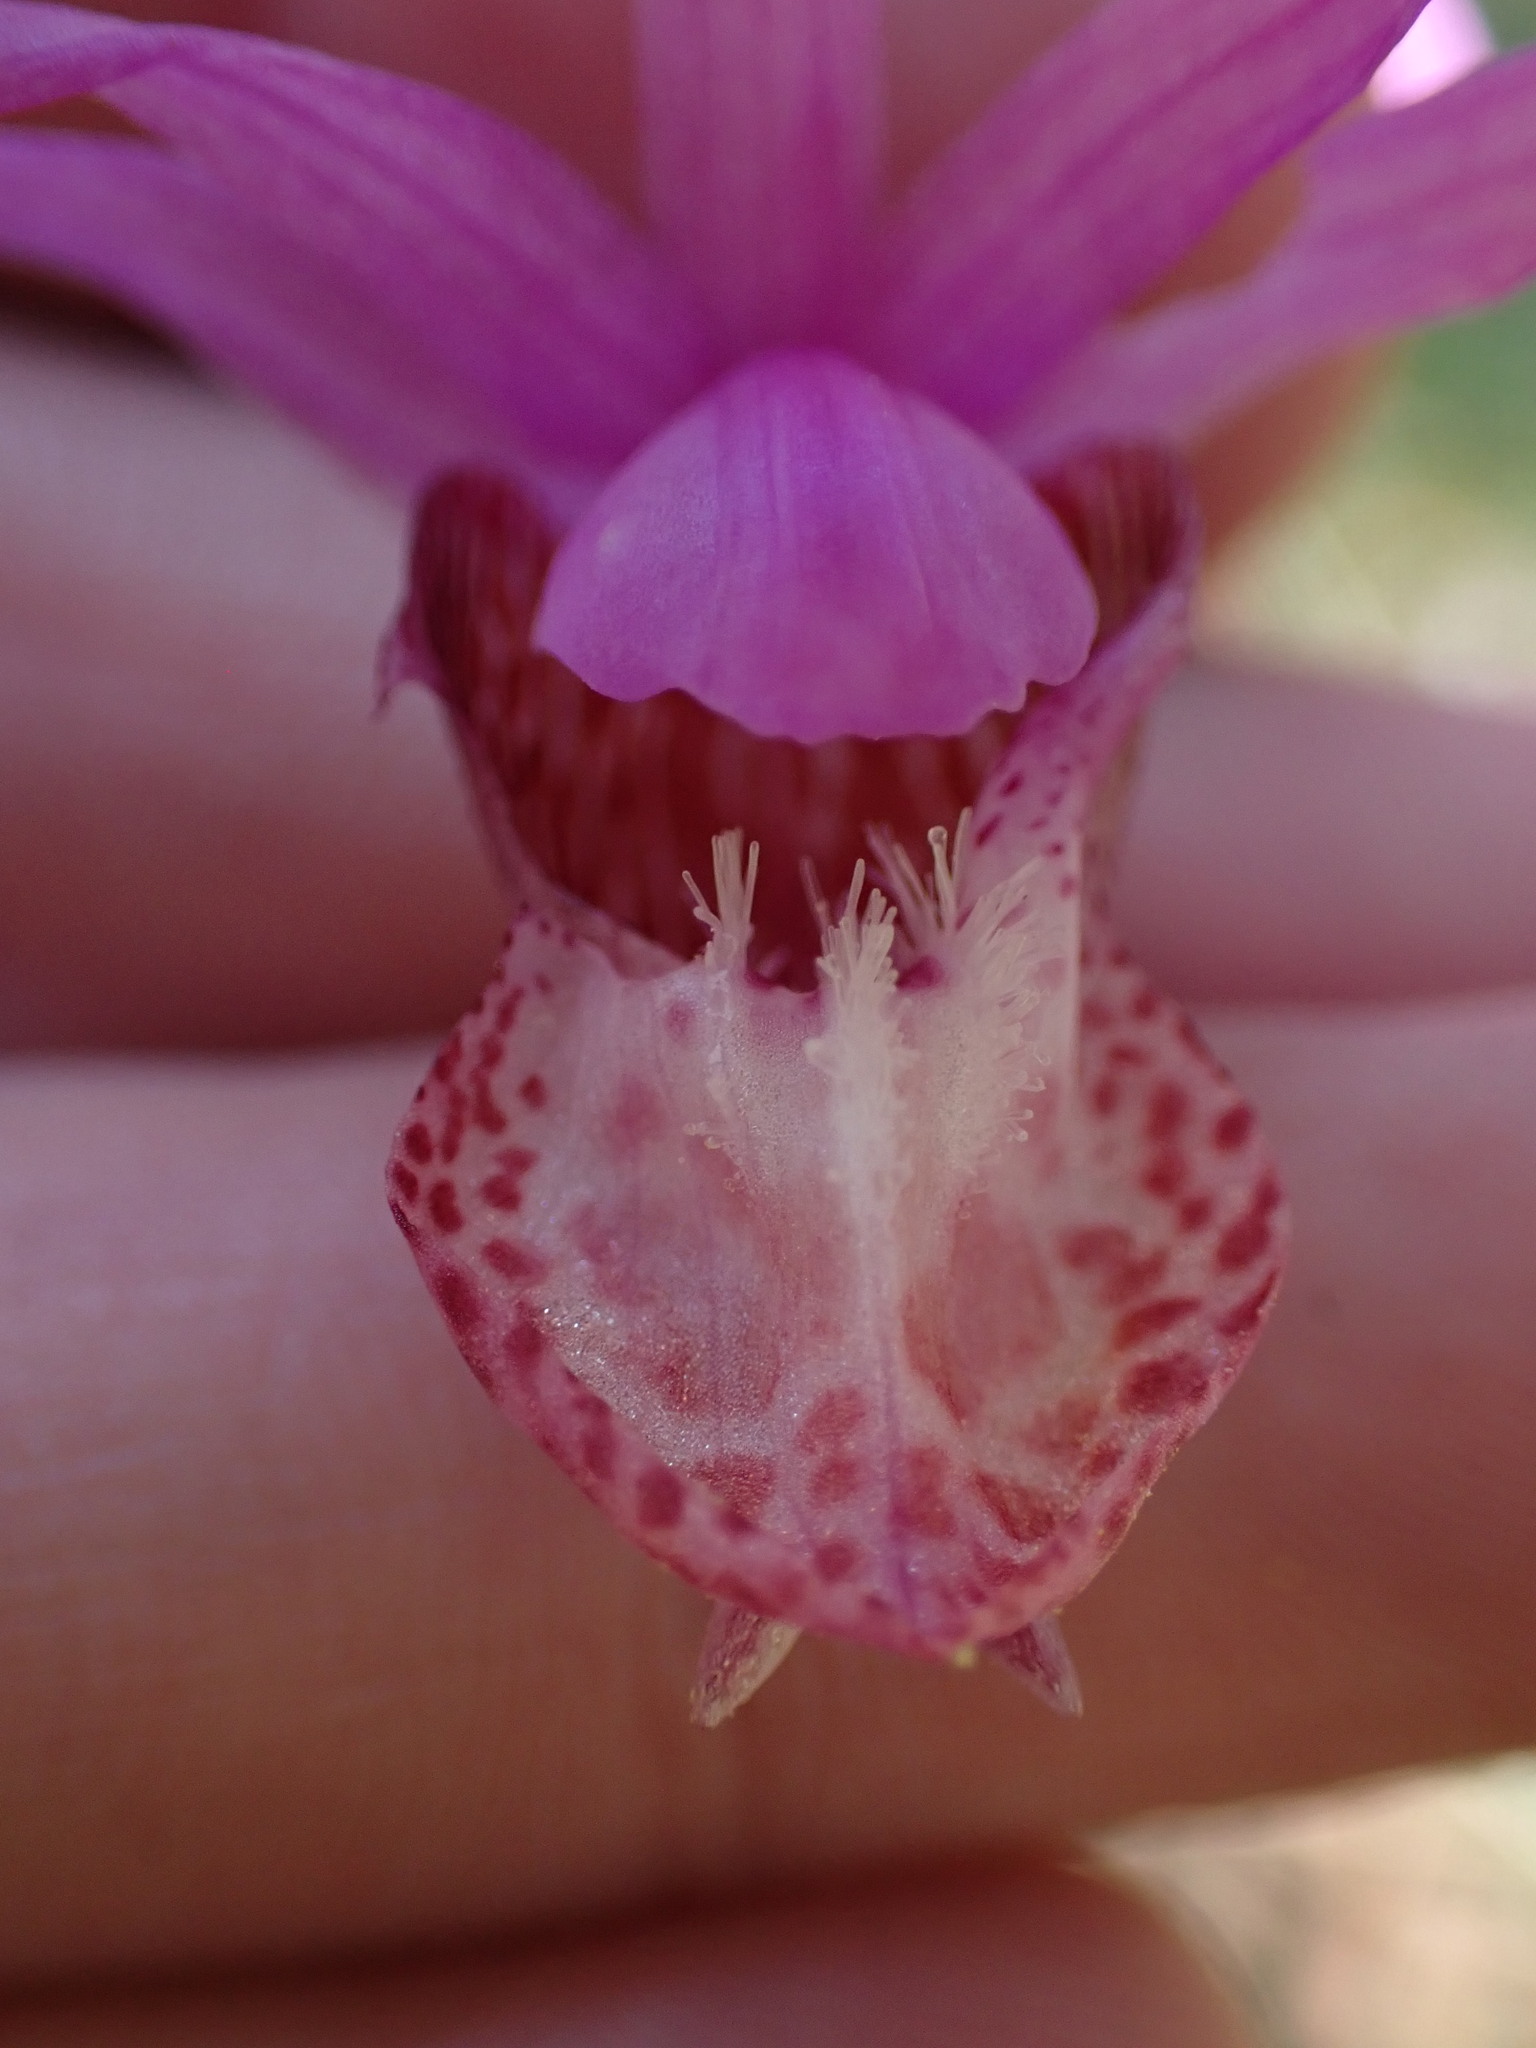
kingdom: Plantae
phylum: Tracheophyta
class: Liliopsida
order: Asparagales
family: Orchidaceae
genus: Calypso
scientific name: Calypso bulbosa
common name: Calypso
